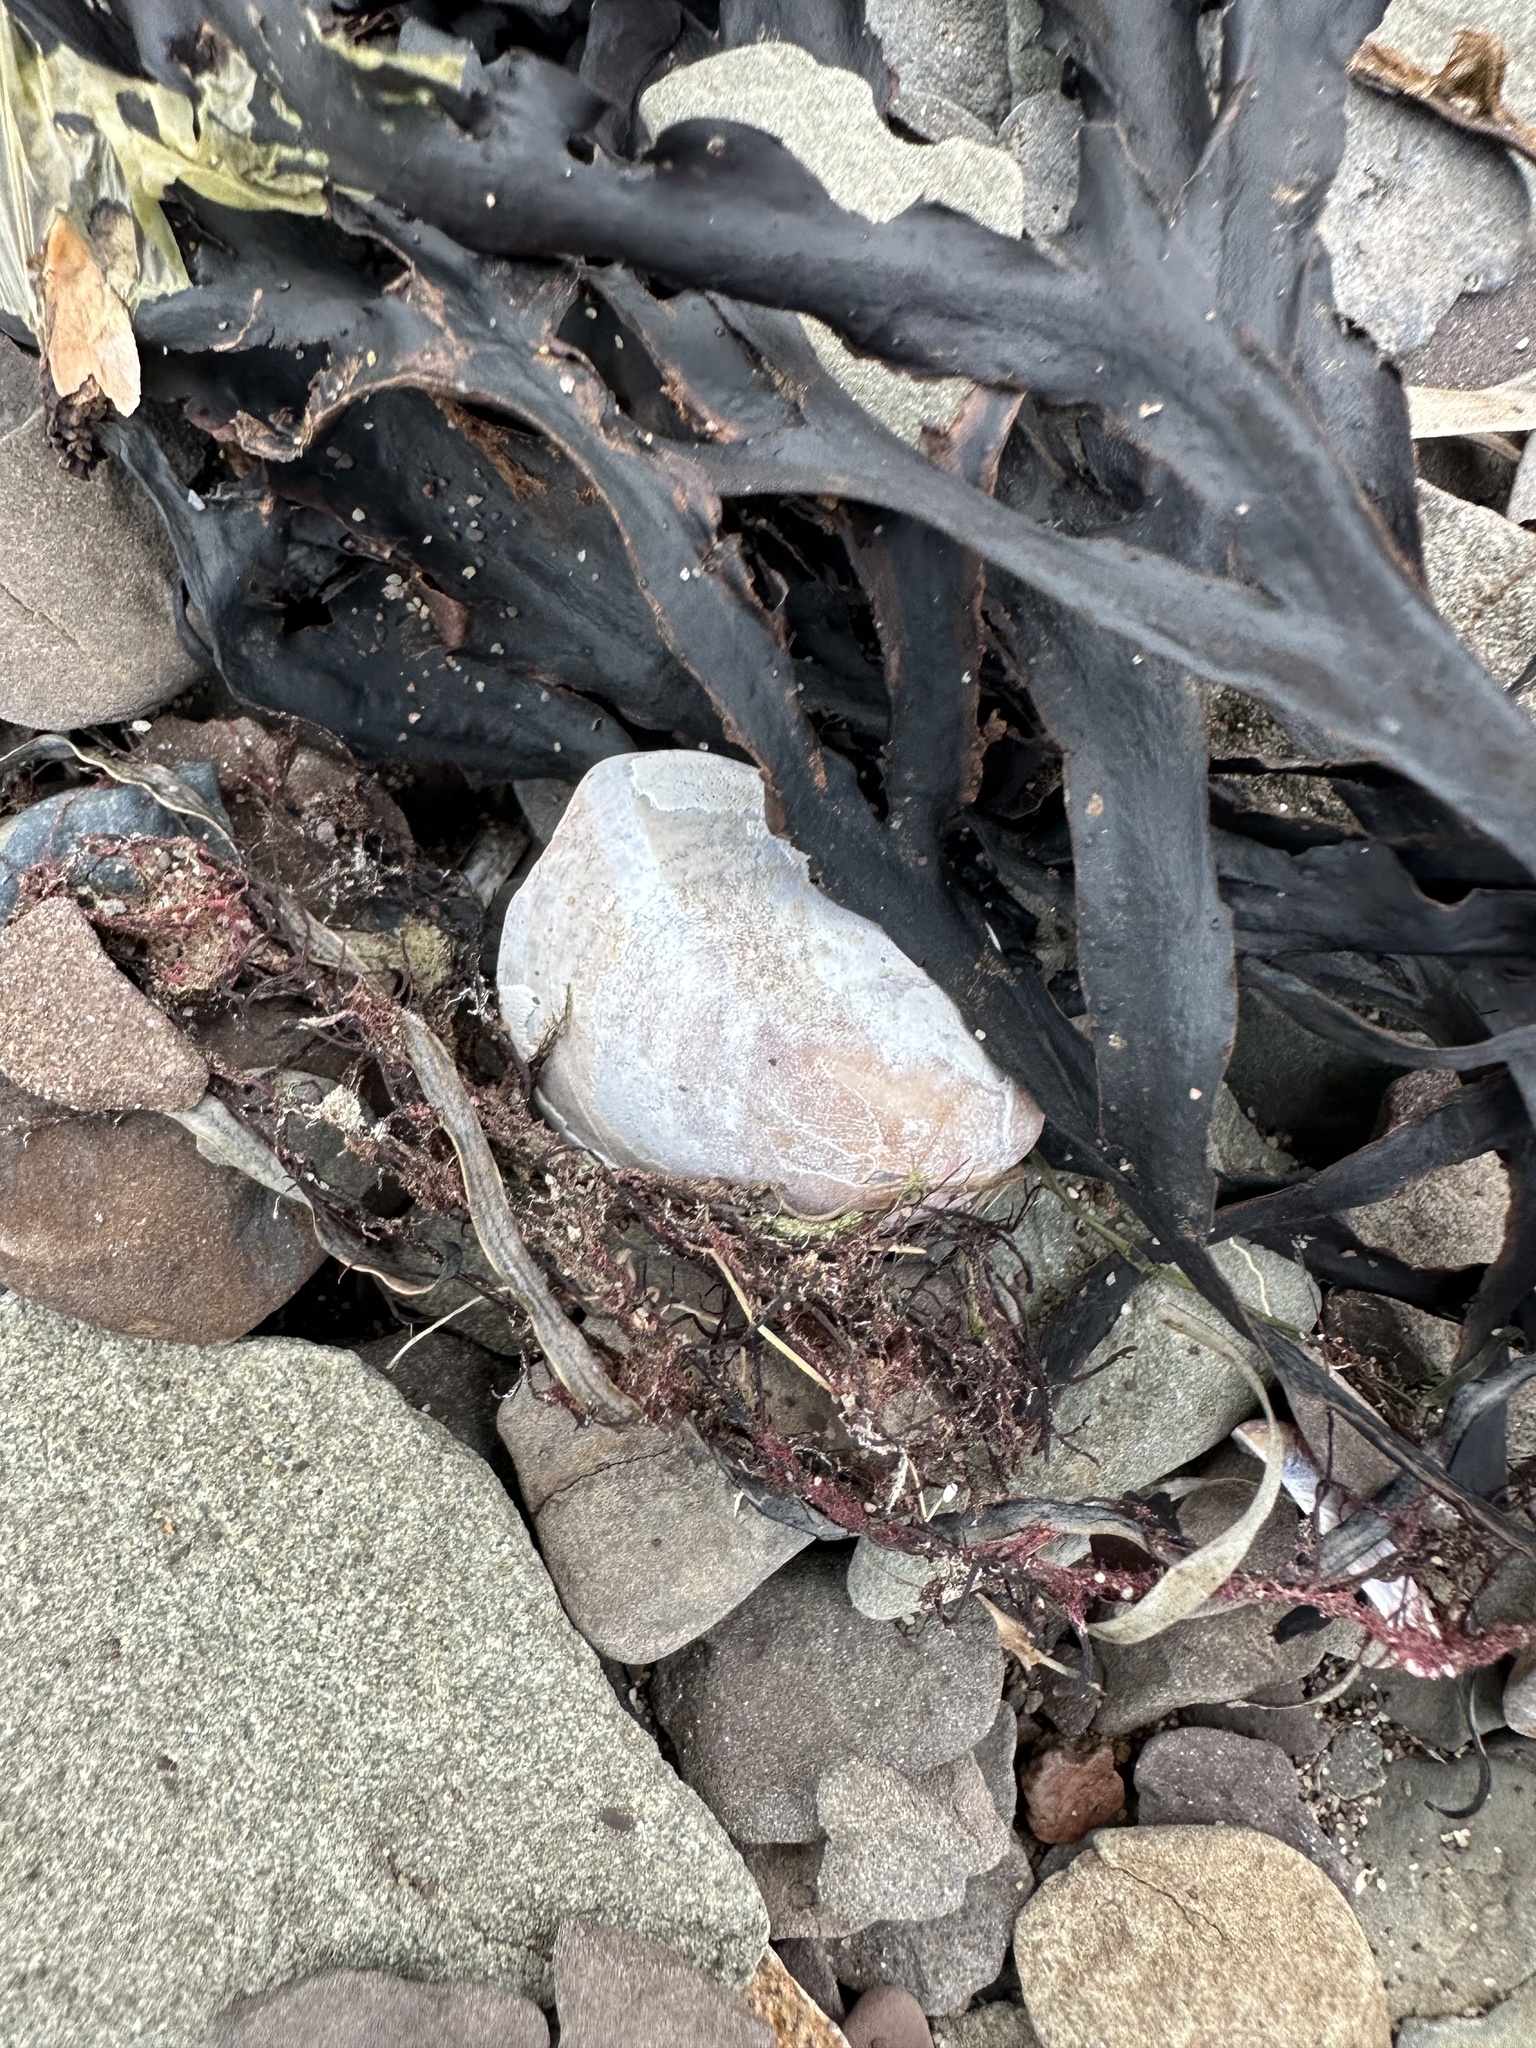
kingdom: Animalia
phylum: Mollusca
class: Gastropoda
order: Littorinimorpha
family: Calyptraeidae
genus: Crepidula
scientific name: Crepidula fornicata
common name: Slipper limpet
